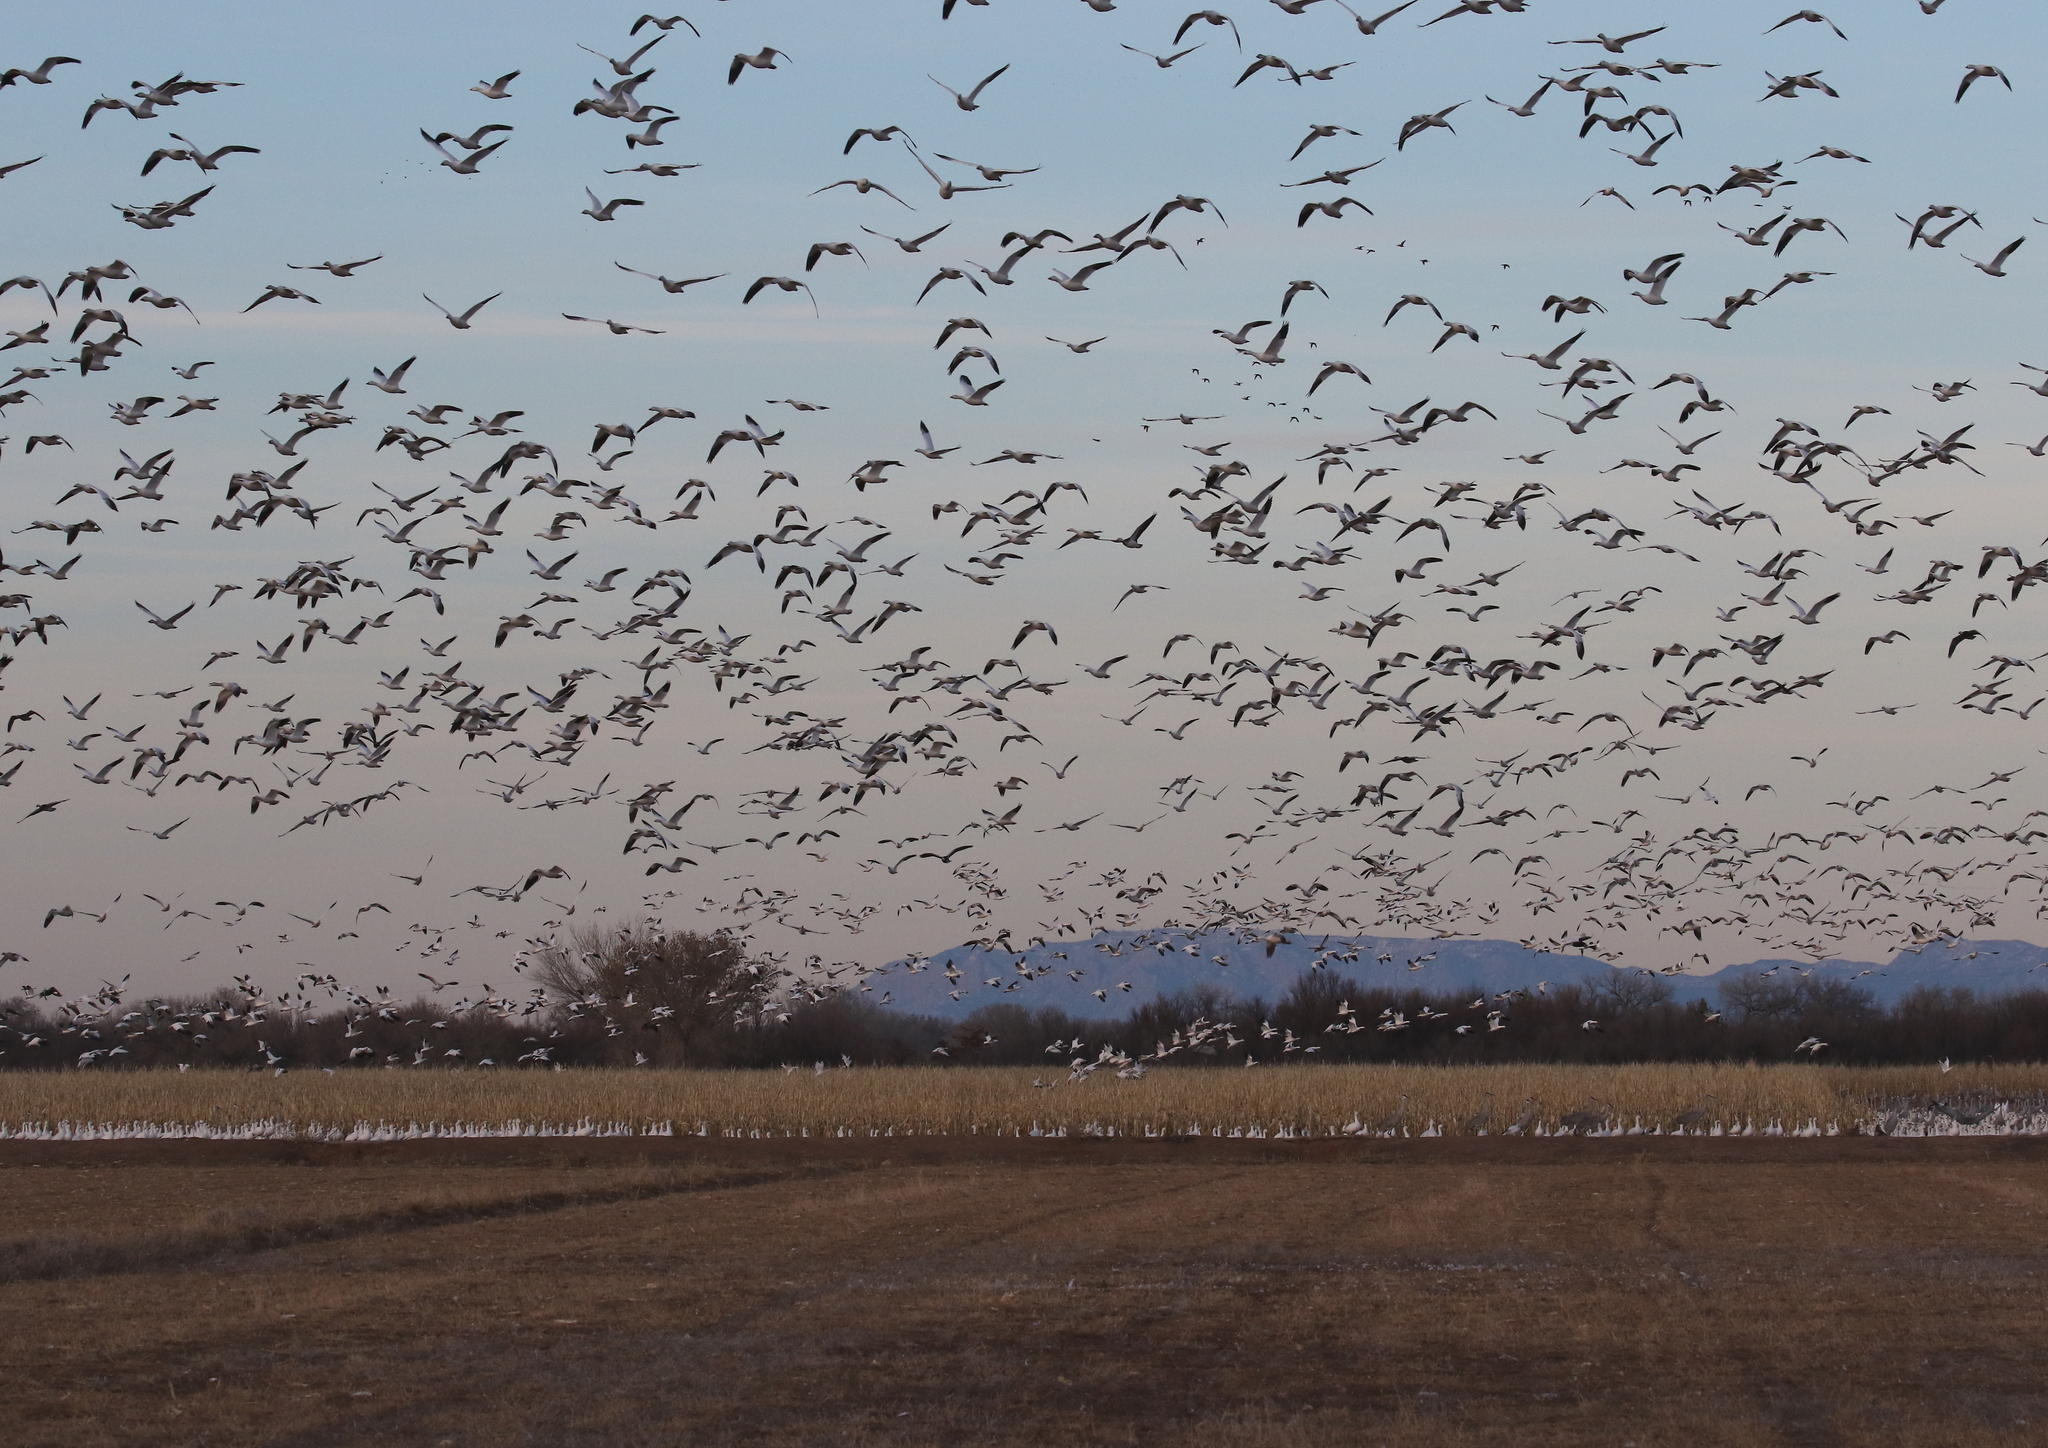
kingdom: Animalia
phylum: Chordata
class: Aves
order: Anseriformes
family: Anatidae
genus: Anser
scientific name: Anser caerulescens
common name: Snow goose
